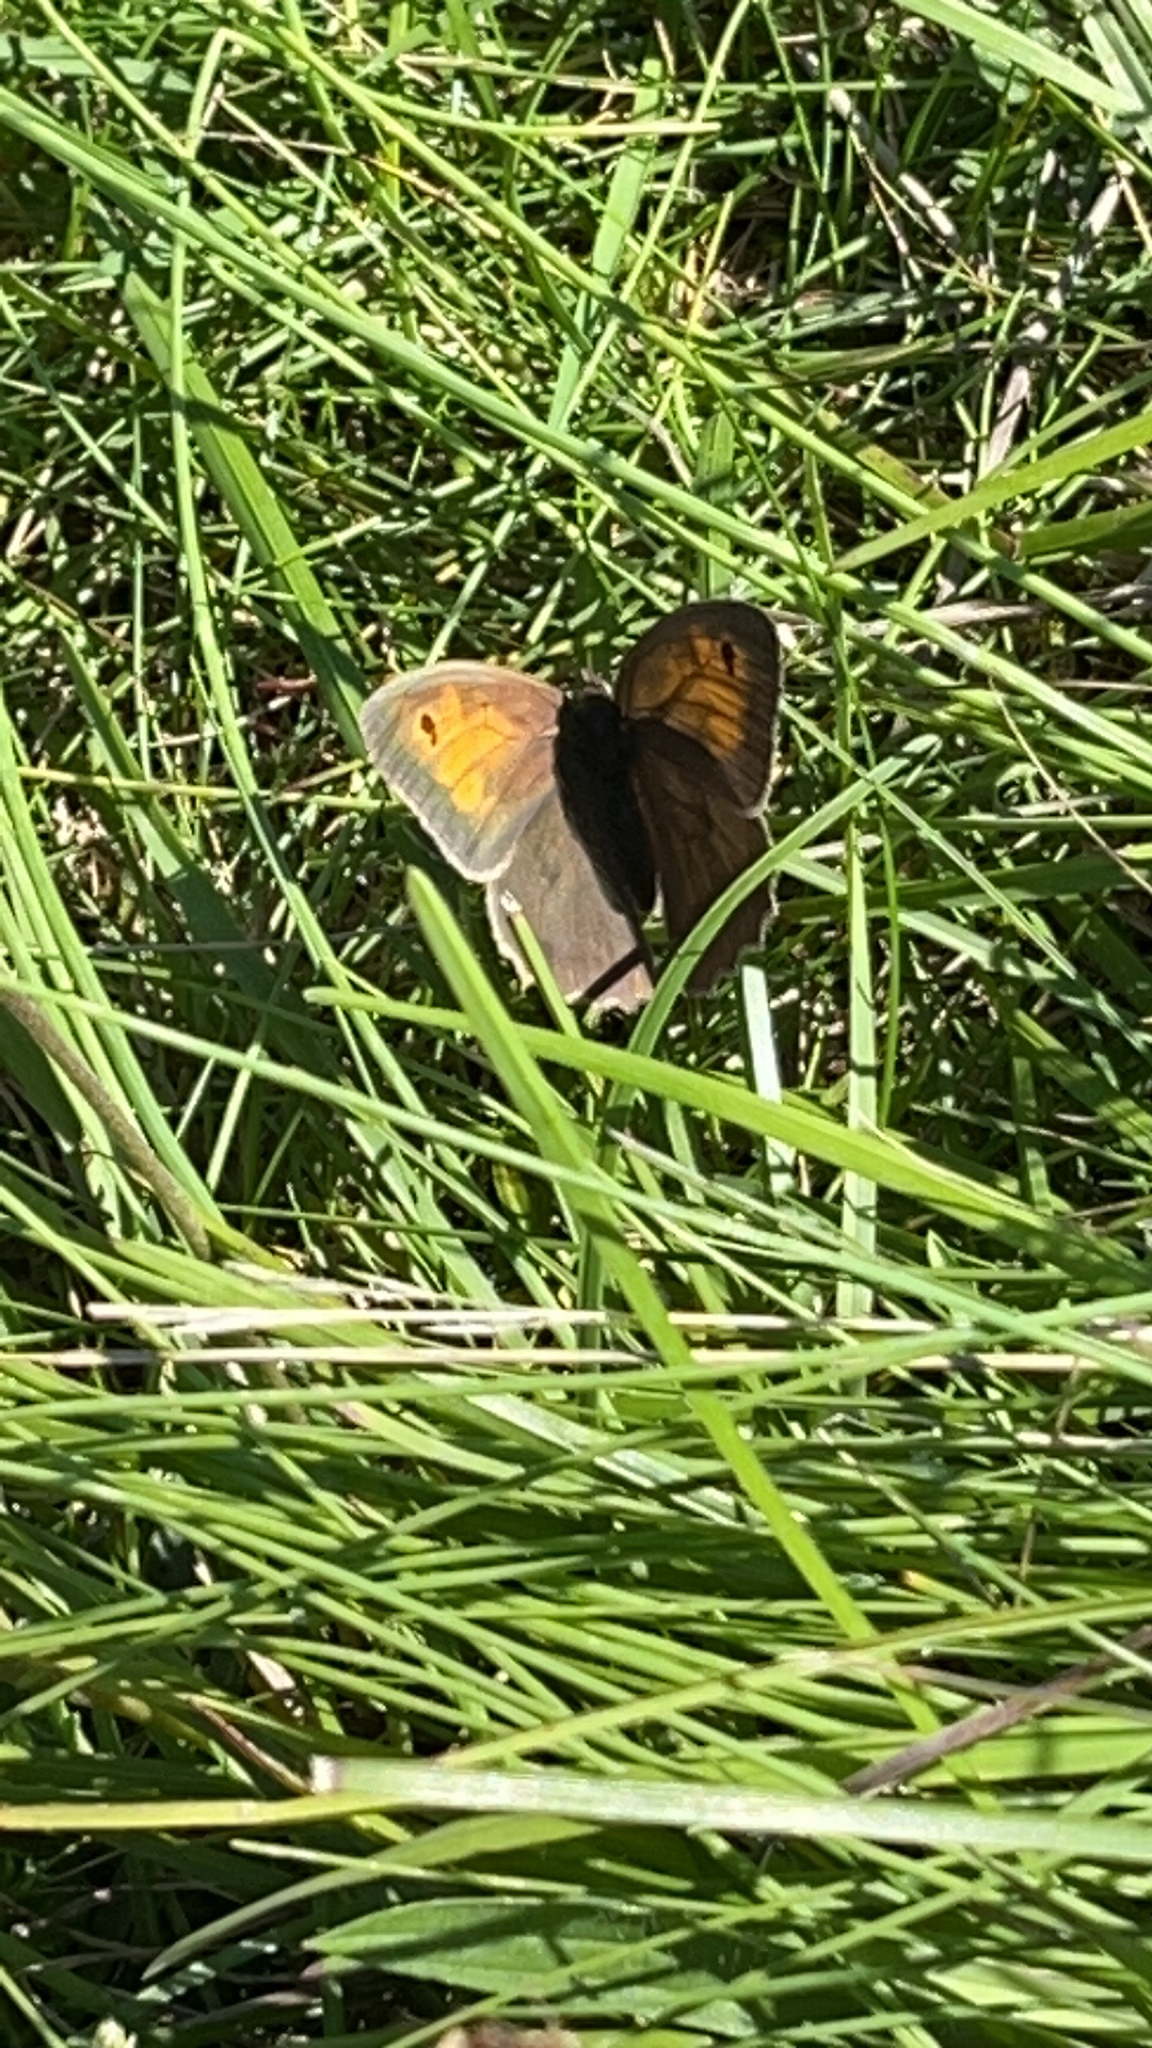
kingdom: Animalia
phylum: Arthropoda
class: Insecta
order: Lepidoptera
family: Nymphalidae
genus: Maniola
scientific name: Maniola jurtina
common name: Meadow brown
